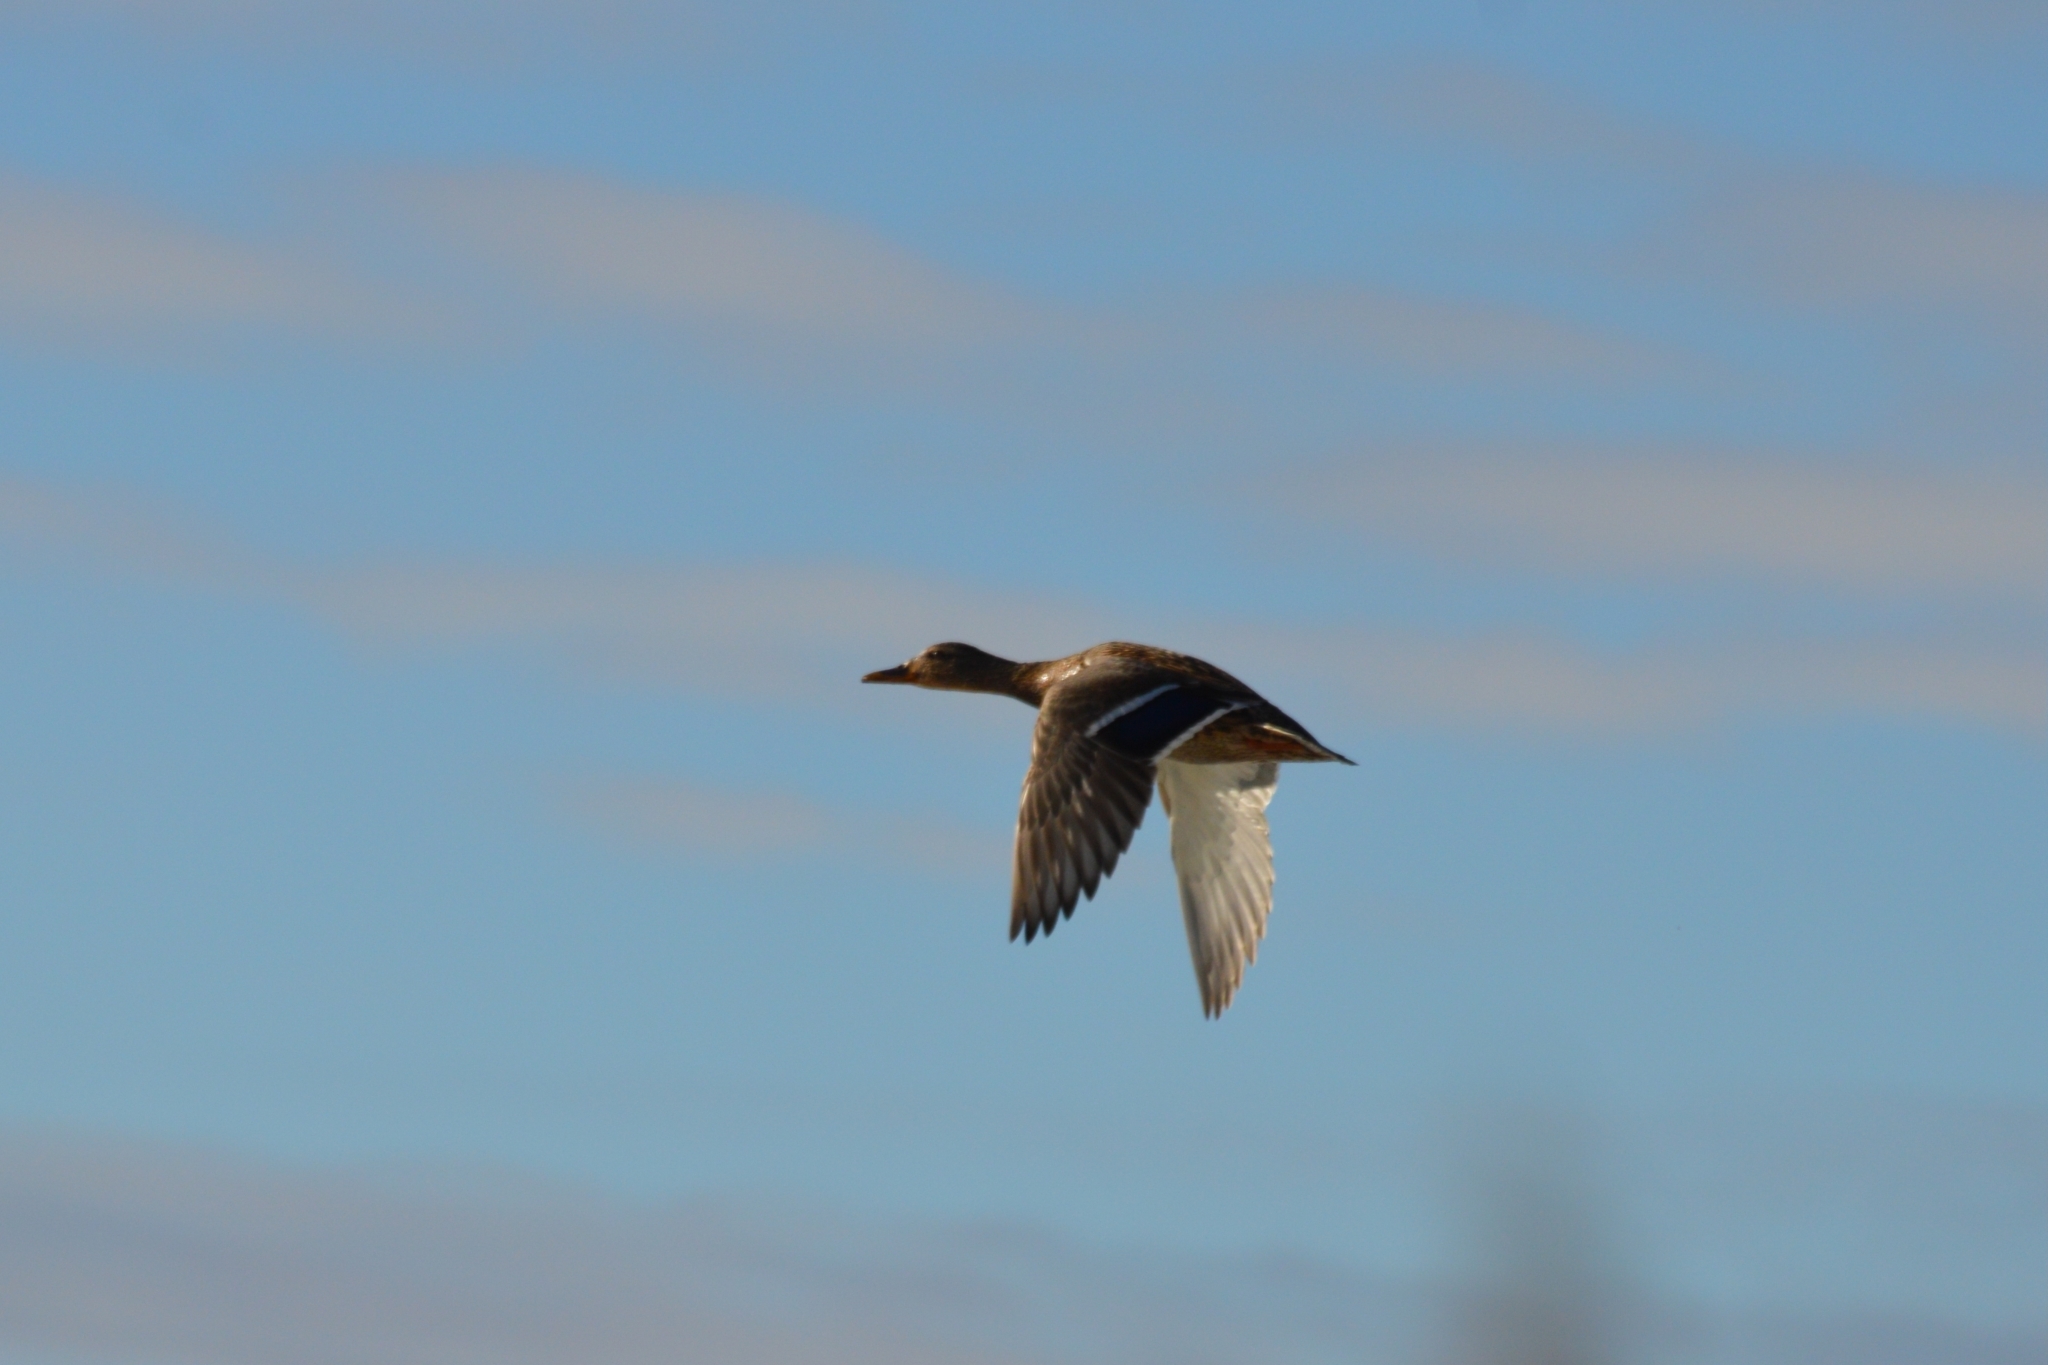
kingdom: Animalia
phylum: Chordata
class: Aves
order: Anseriformes
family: Anatidae
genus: Anas
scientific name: Anas platyrhynchos
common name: Mallard
